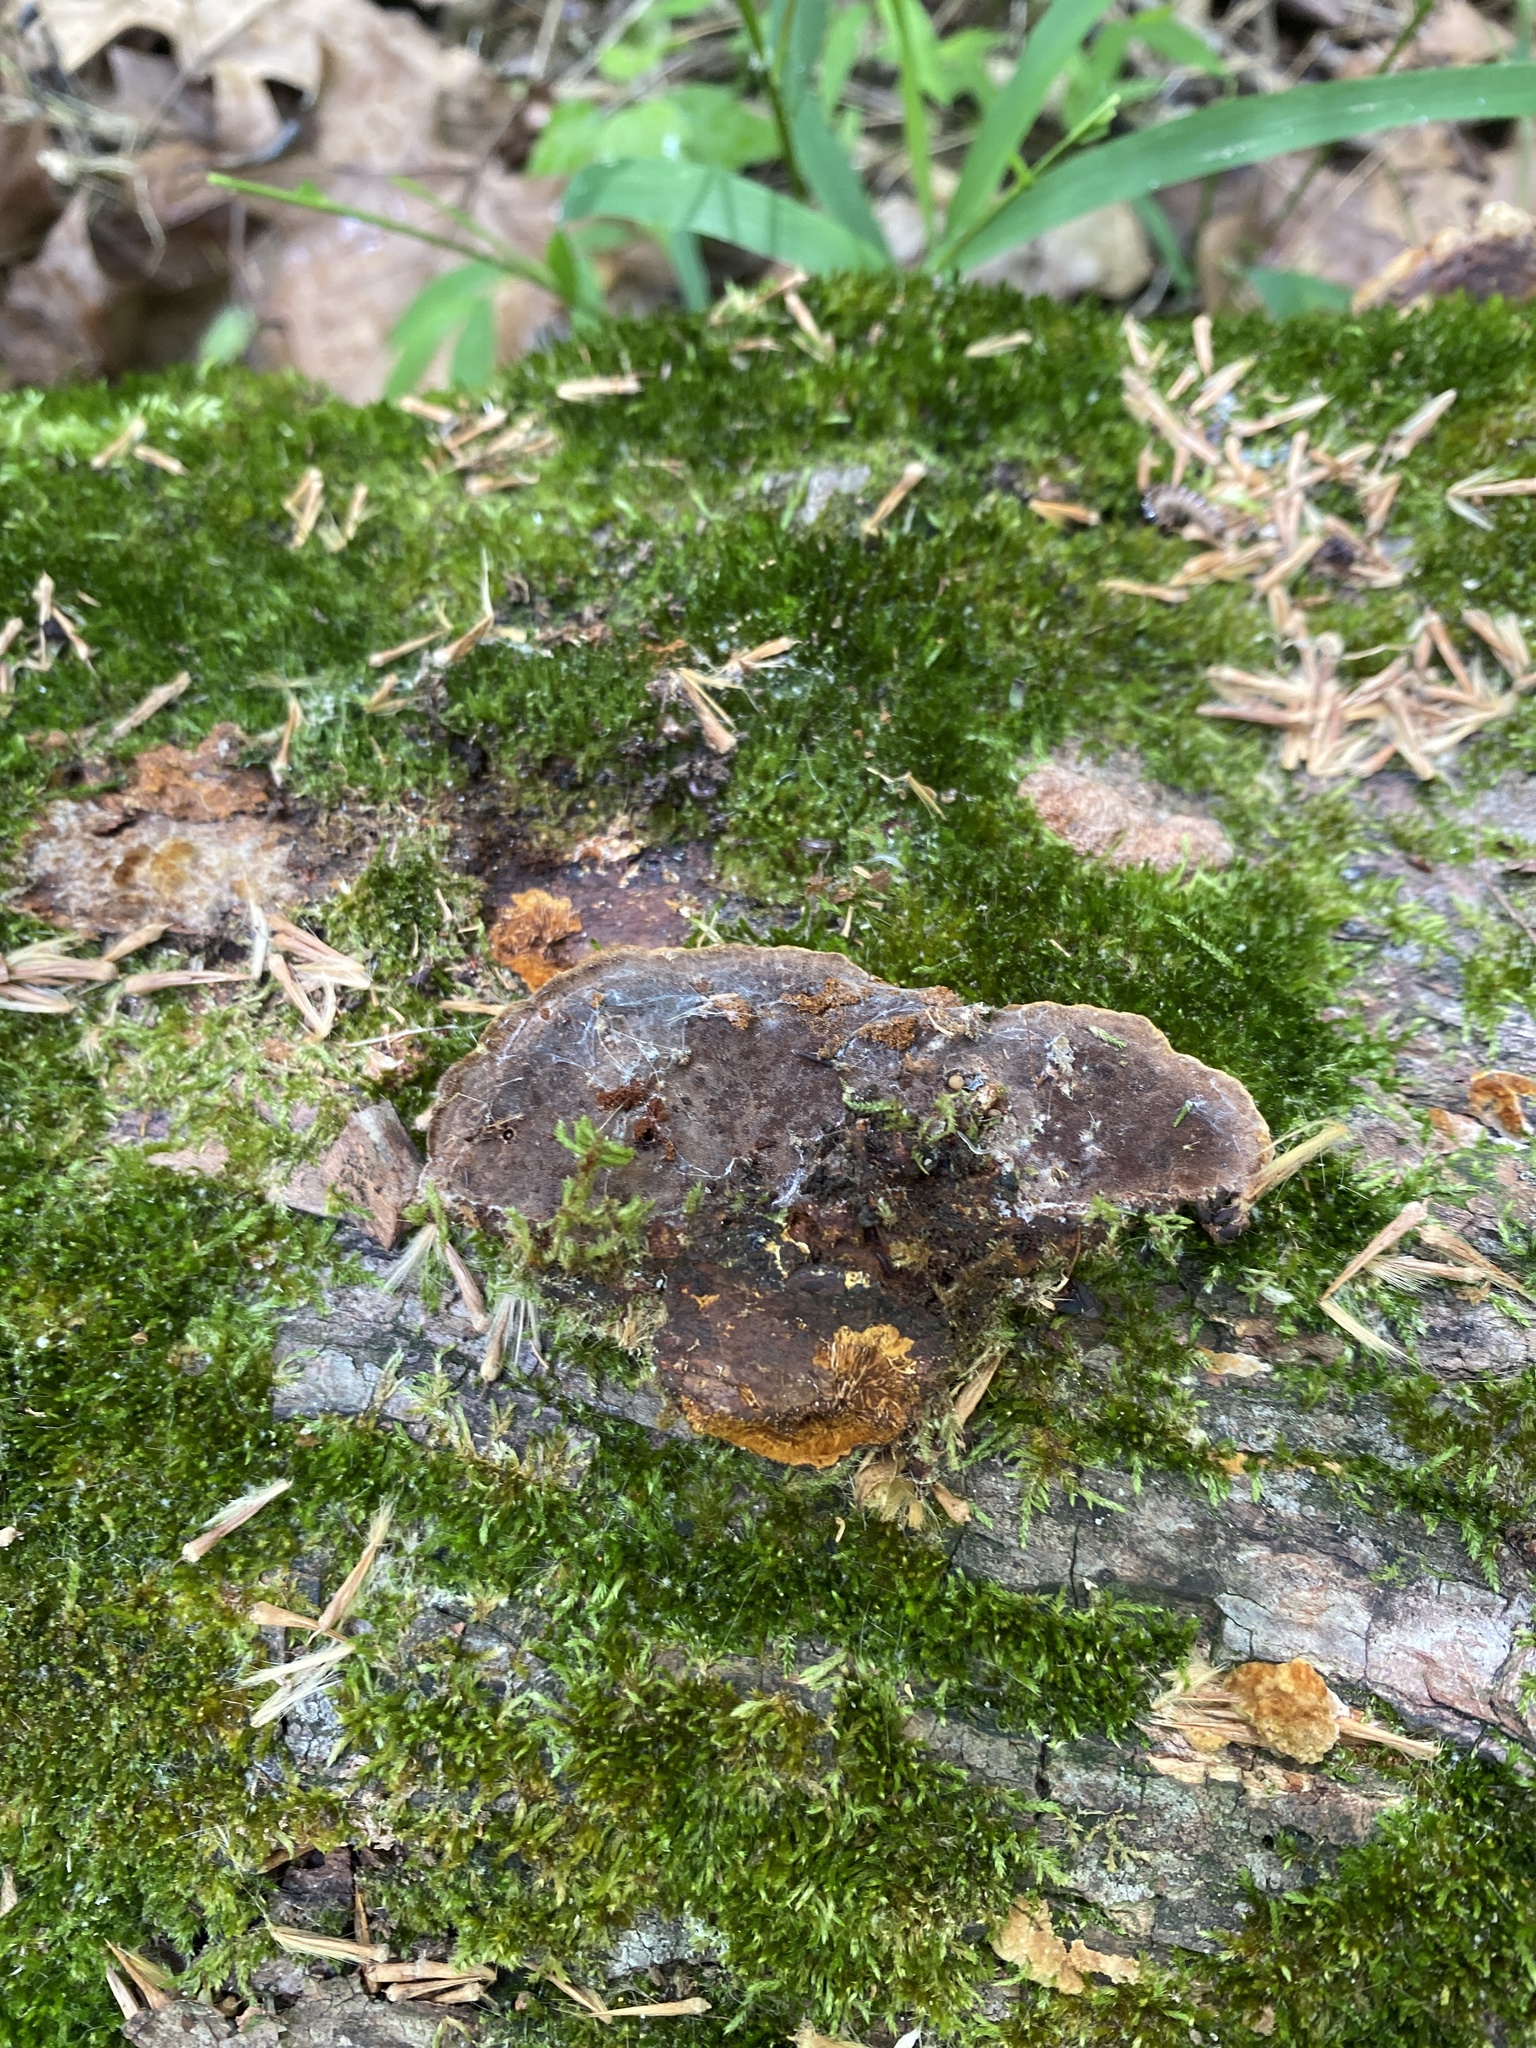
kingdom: Fungi
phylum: Basidiomycota
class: Agaricomycetes
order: Hymenochaetales
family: Hymenochaetaceae
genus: Phellinus
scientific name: Phellinus gilvus
